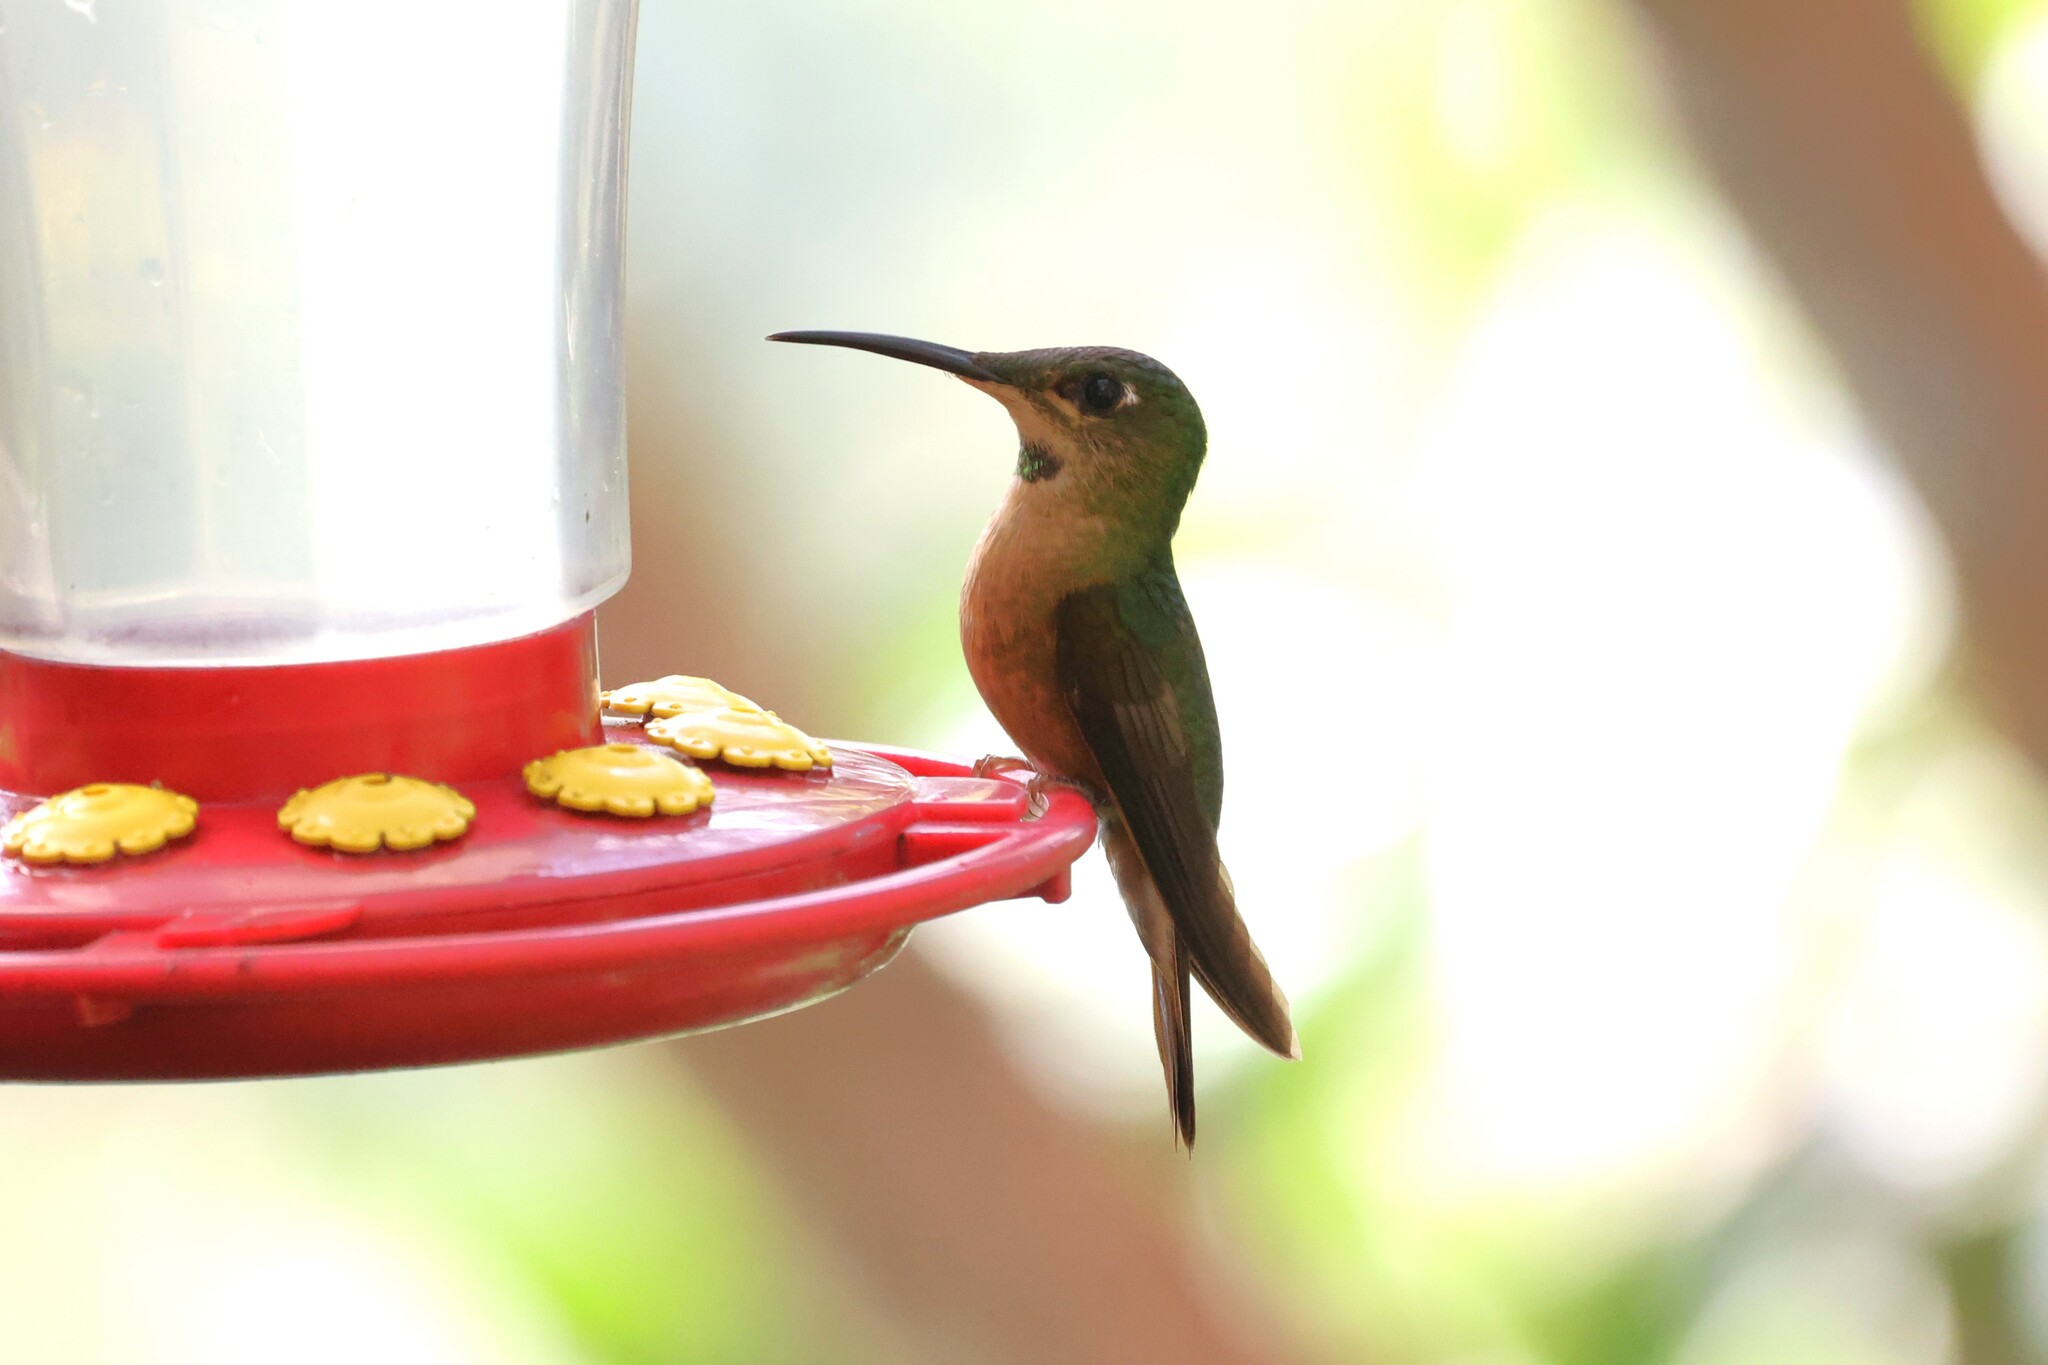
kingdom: Animalia
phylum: Chordata
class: Aves
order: Apodiformes
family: Trochilidae
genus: Heliodoxa
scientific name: Heliodoxa rubinoides
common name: Fawn-breasted brilliant
